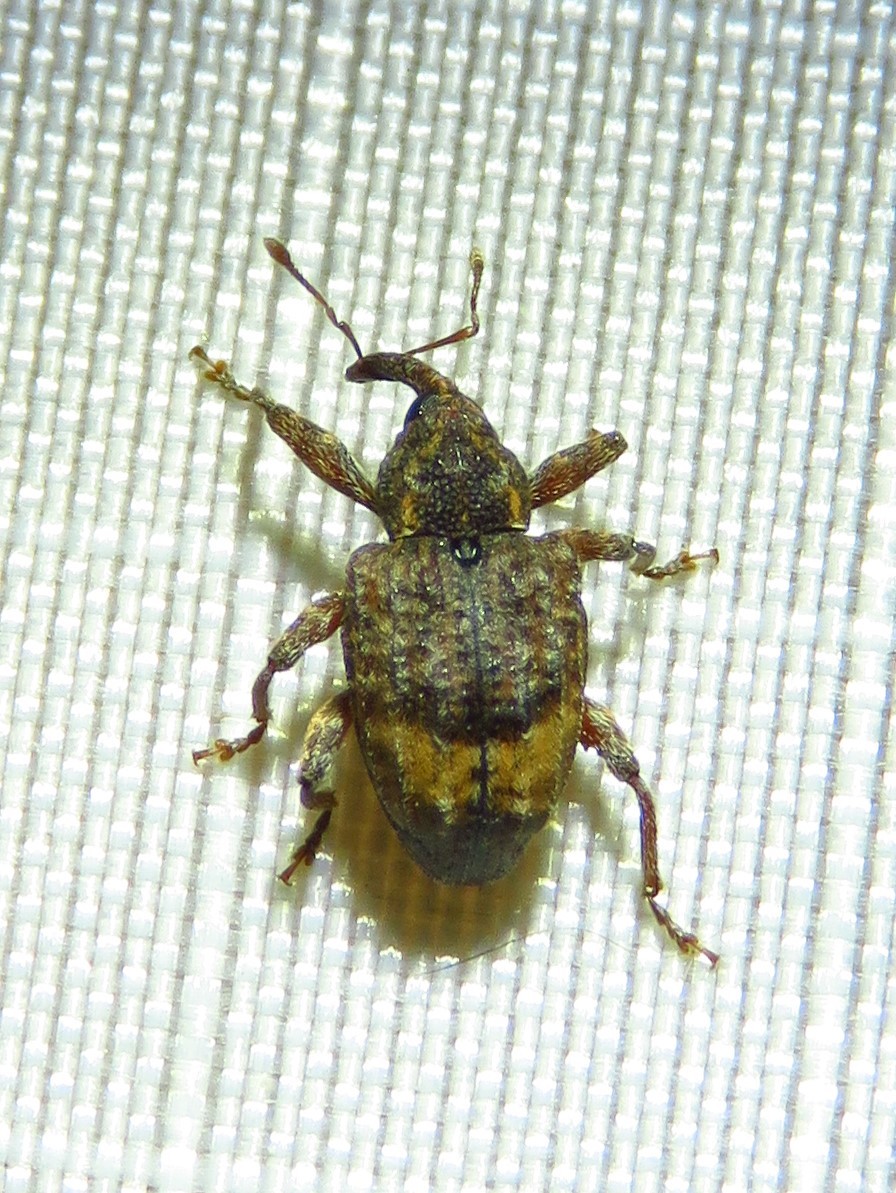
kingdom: Animalia
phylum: Arthropoda
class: Insecta
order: Coleoptera
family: Curculionidae
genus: Conotrachelus
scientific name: Conotrachelus albicinctus
